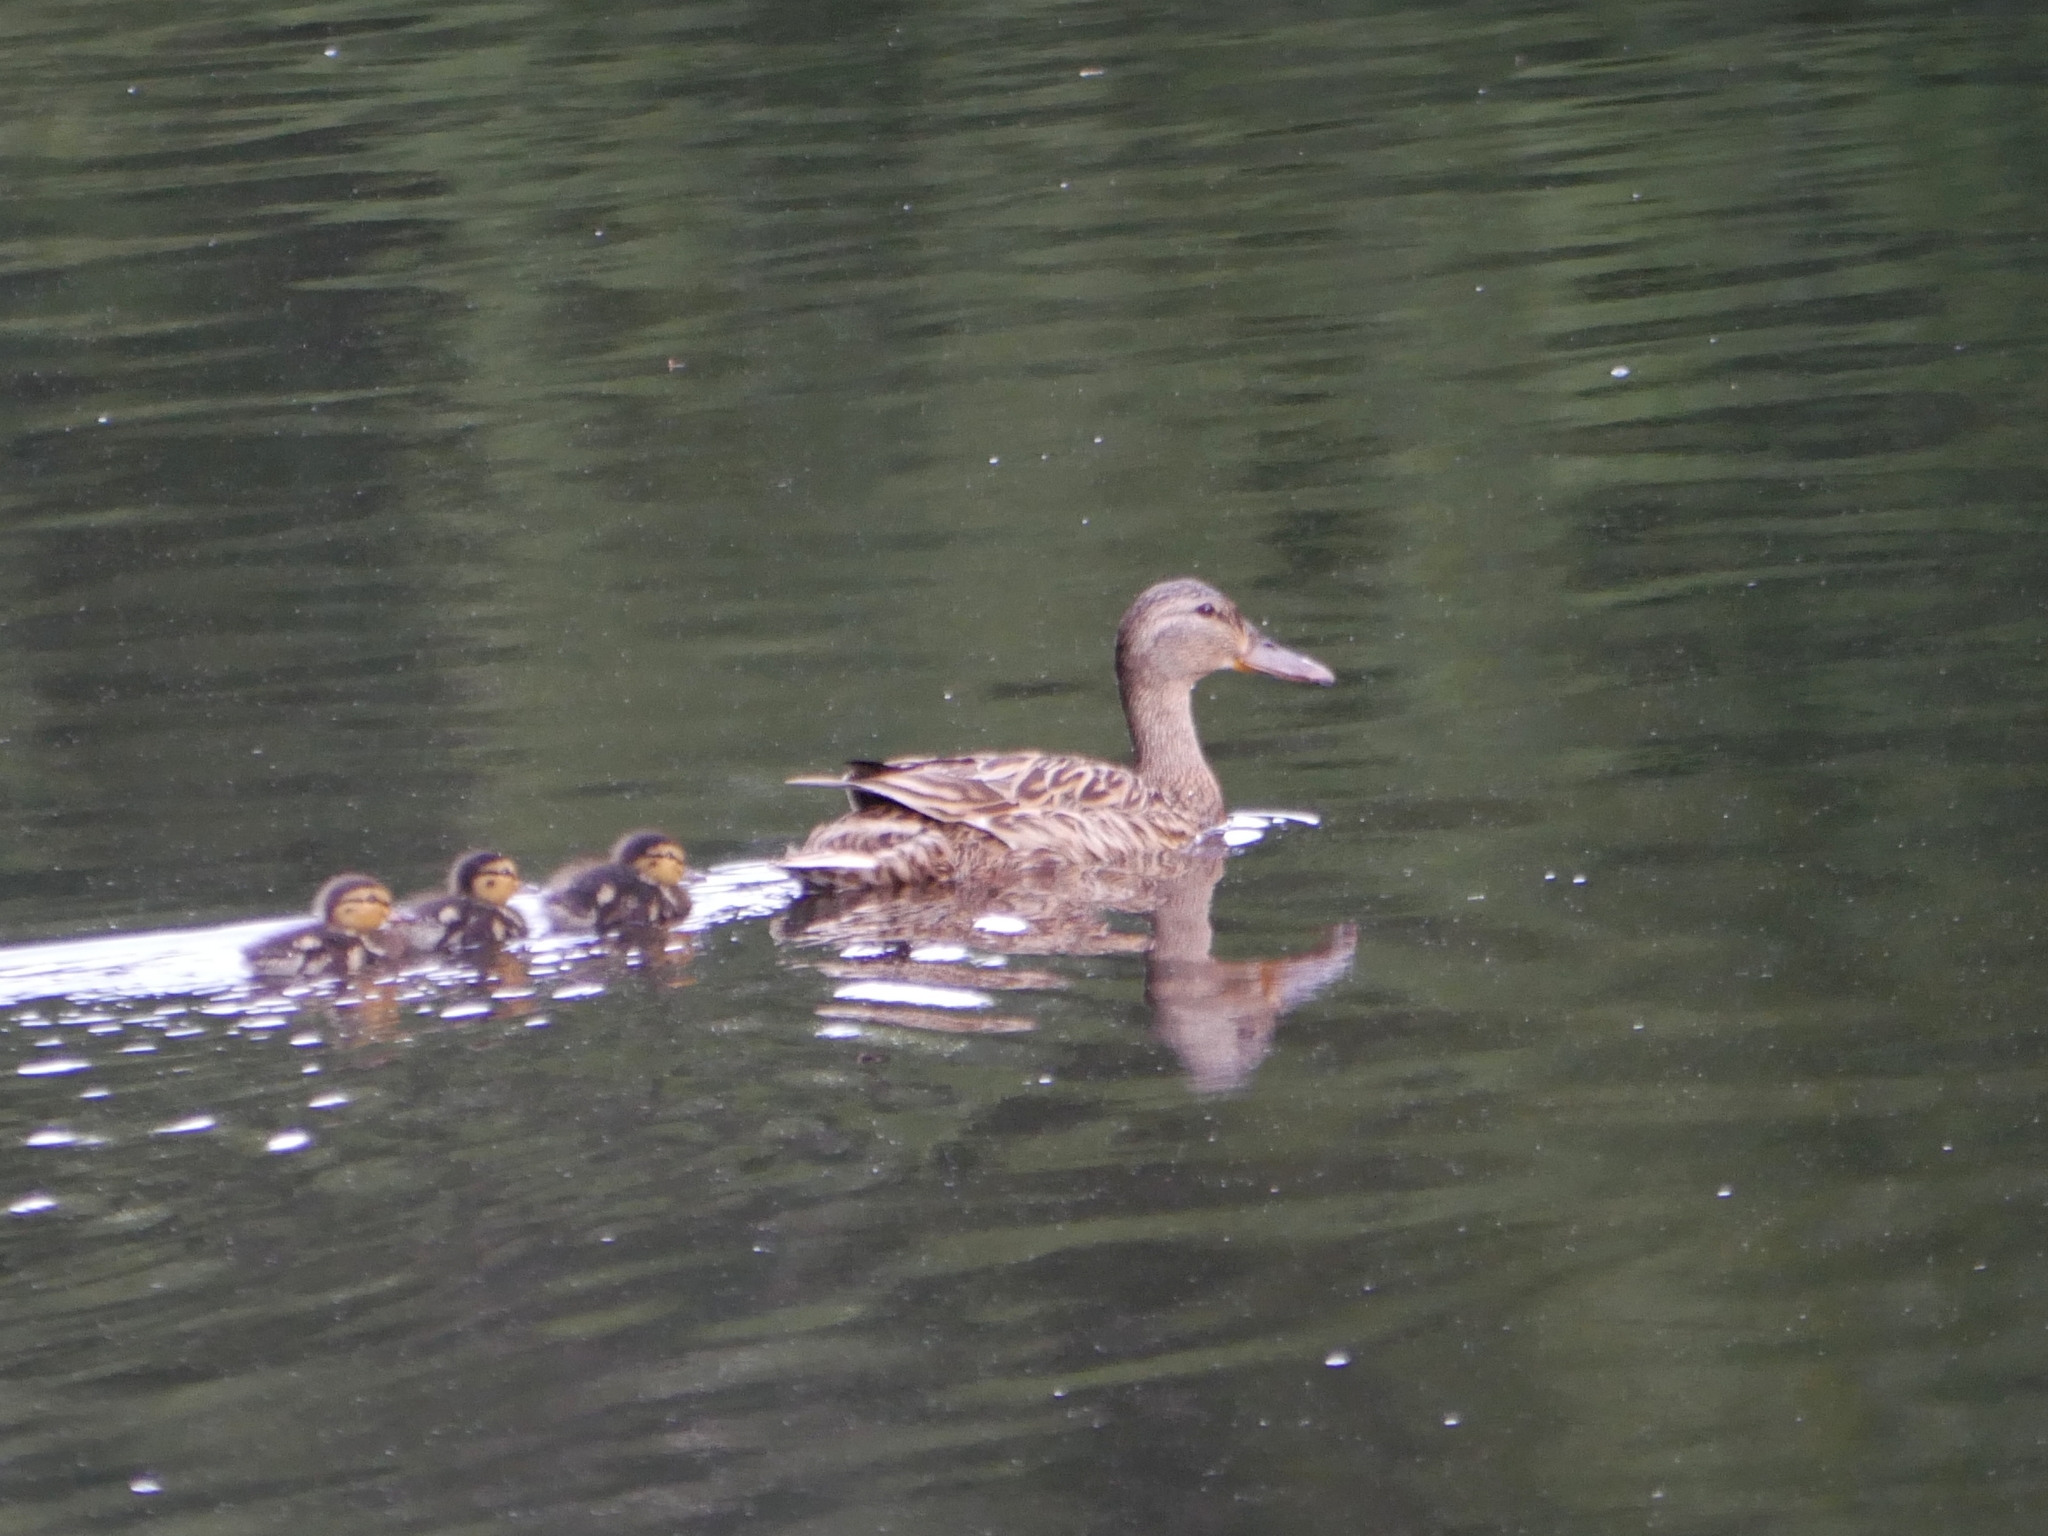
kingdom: Animalia
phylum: Chordata
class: Aves
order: Anseriformes
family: Anatidae
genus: Anas
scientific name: Anas platyrhynchos
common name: Mallard
